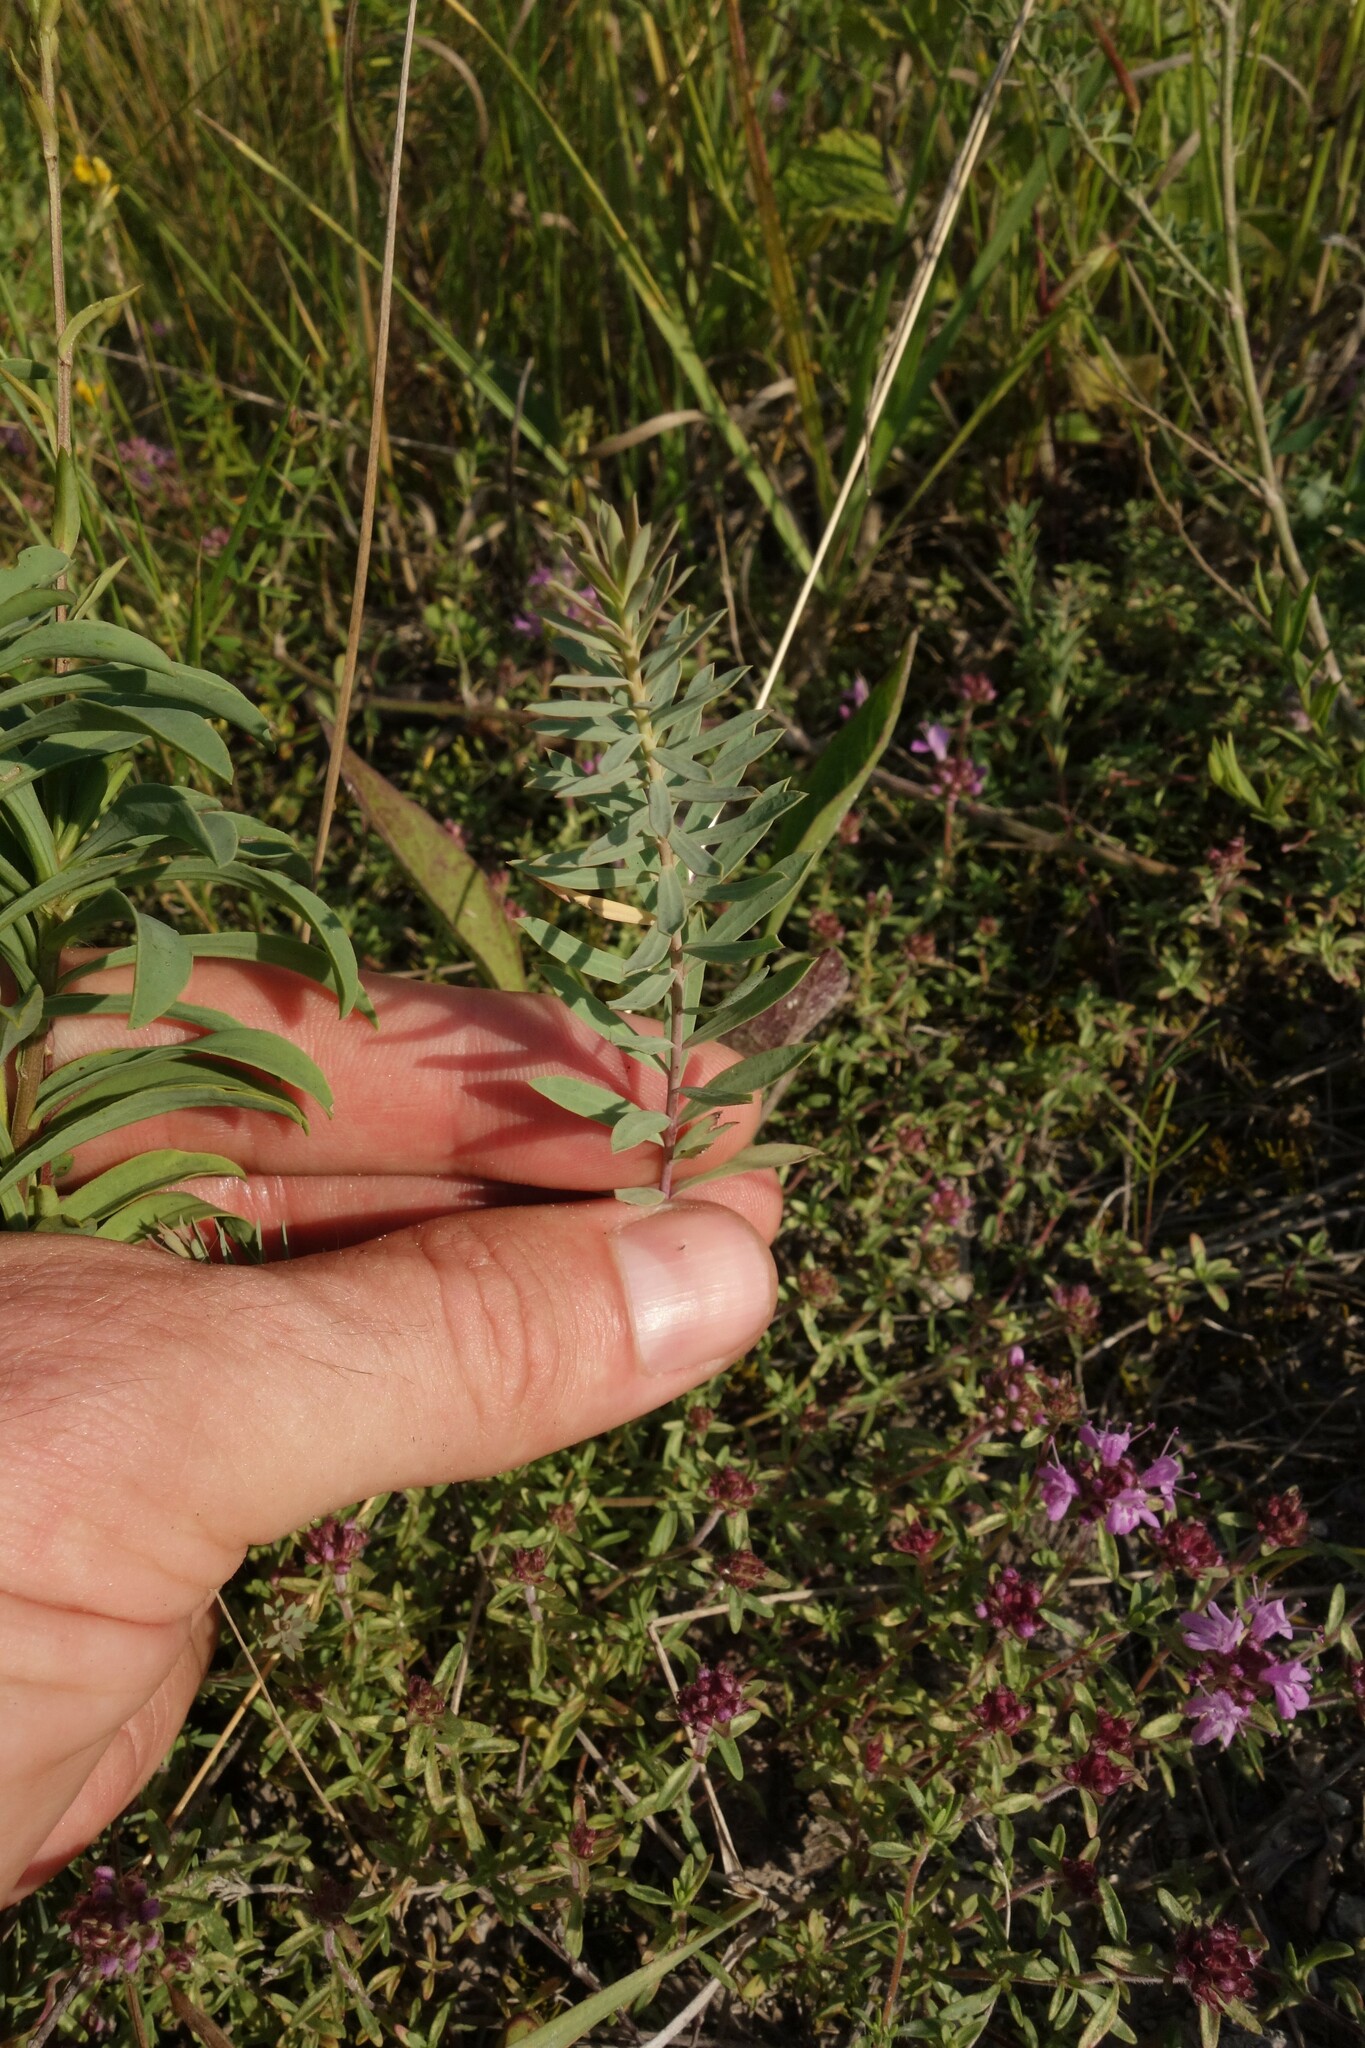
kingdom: Plantae
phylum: Tracheophyta
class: Magnoliopsida
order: Malpighiales
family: Euphorbiaceae
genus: Euphorbia
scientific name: Euphorbia seguieriana
